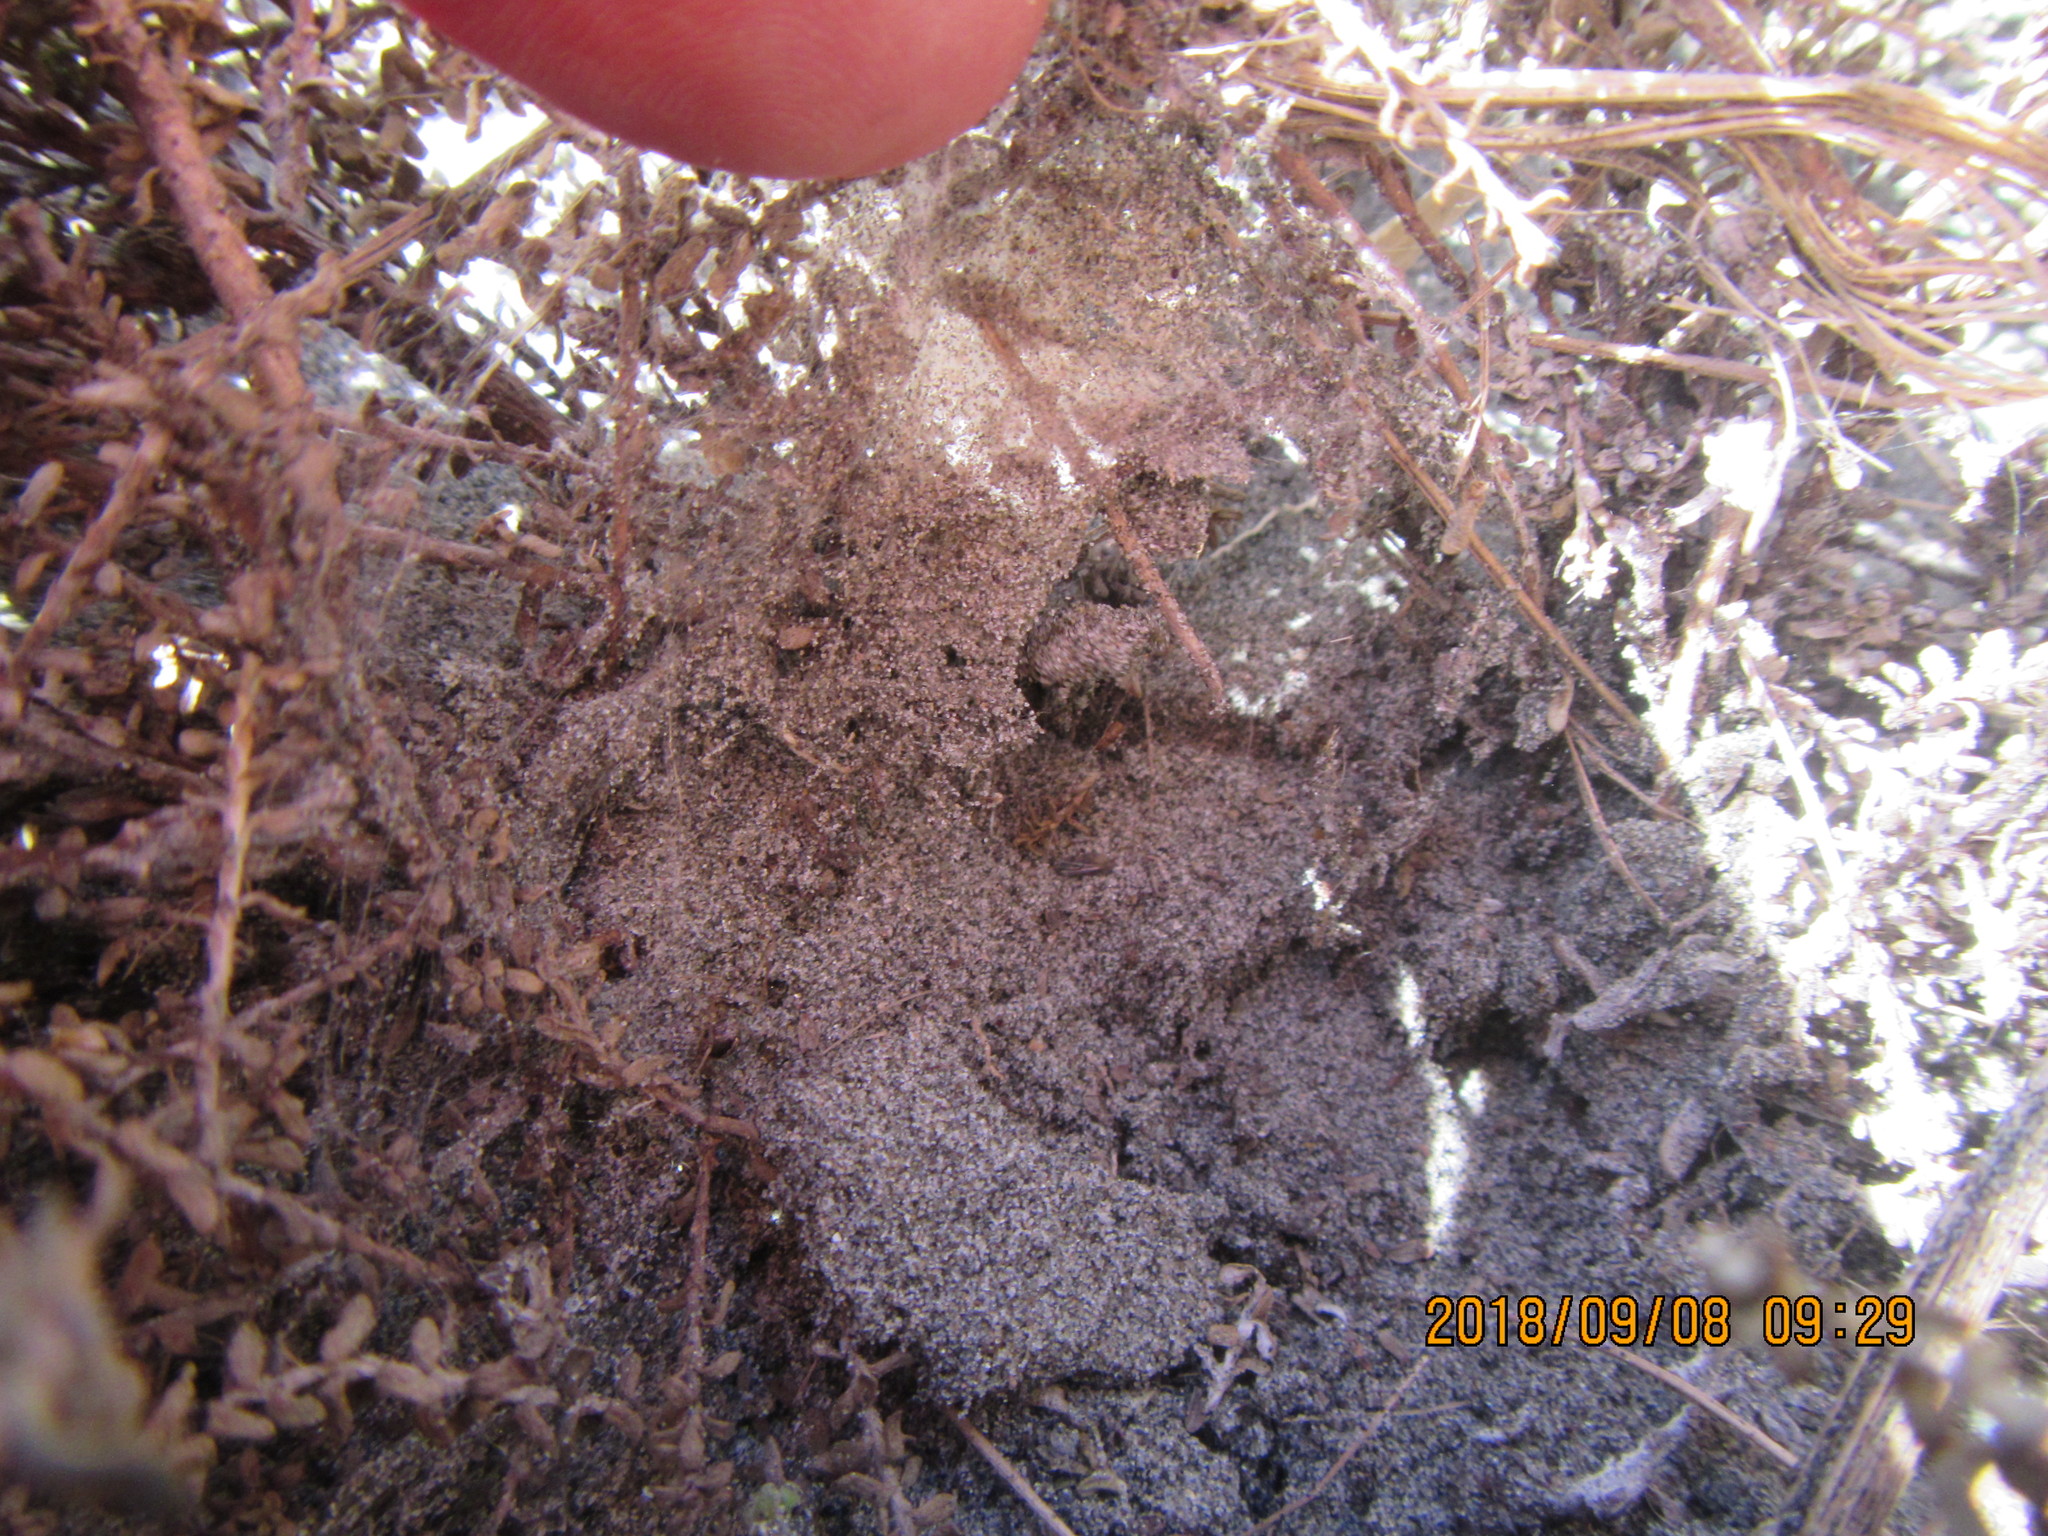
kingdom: Plantae
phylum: Tracheophyta
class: Magnoliopsida
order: Asterales
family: Asteraceae
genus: Ozothamnus
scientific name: Ozothamnus leptophyllus
